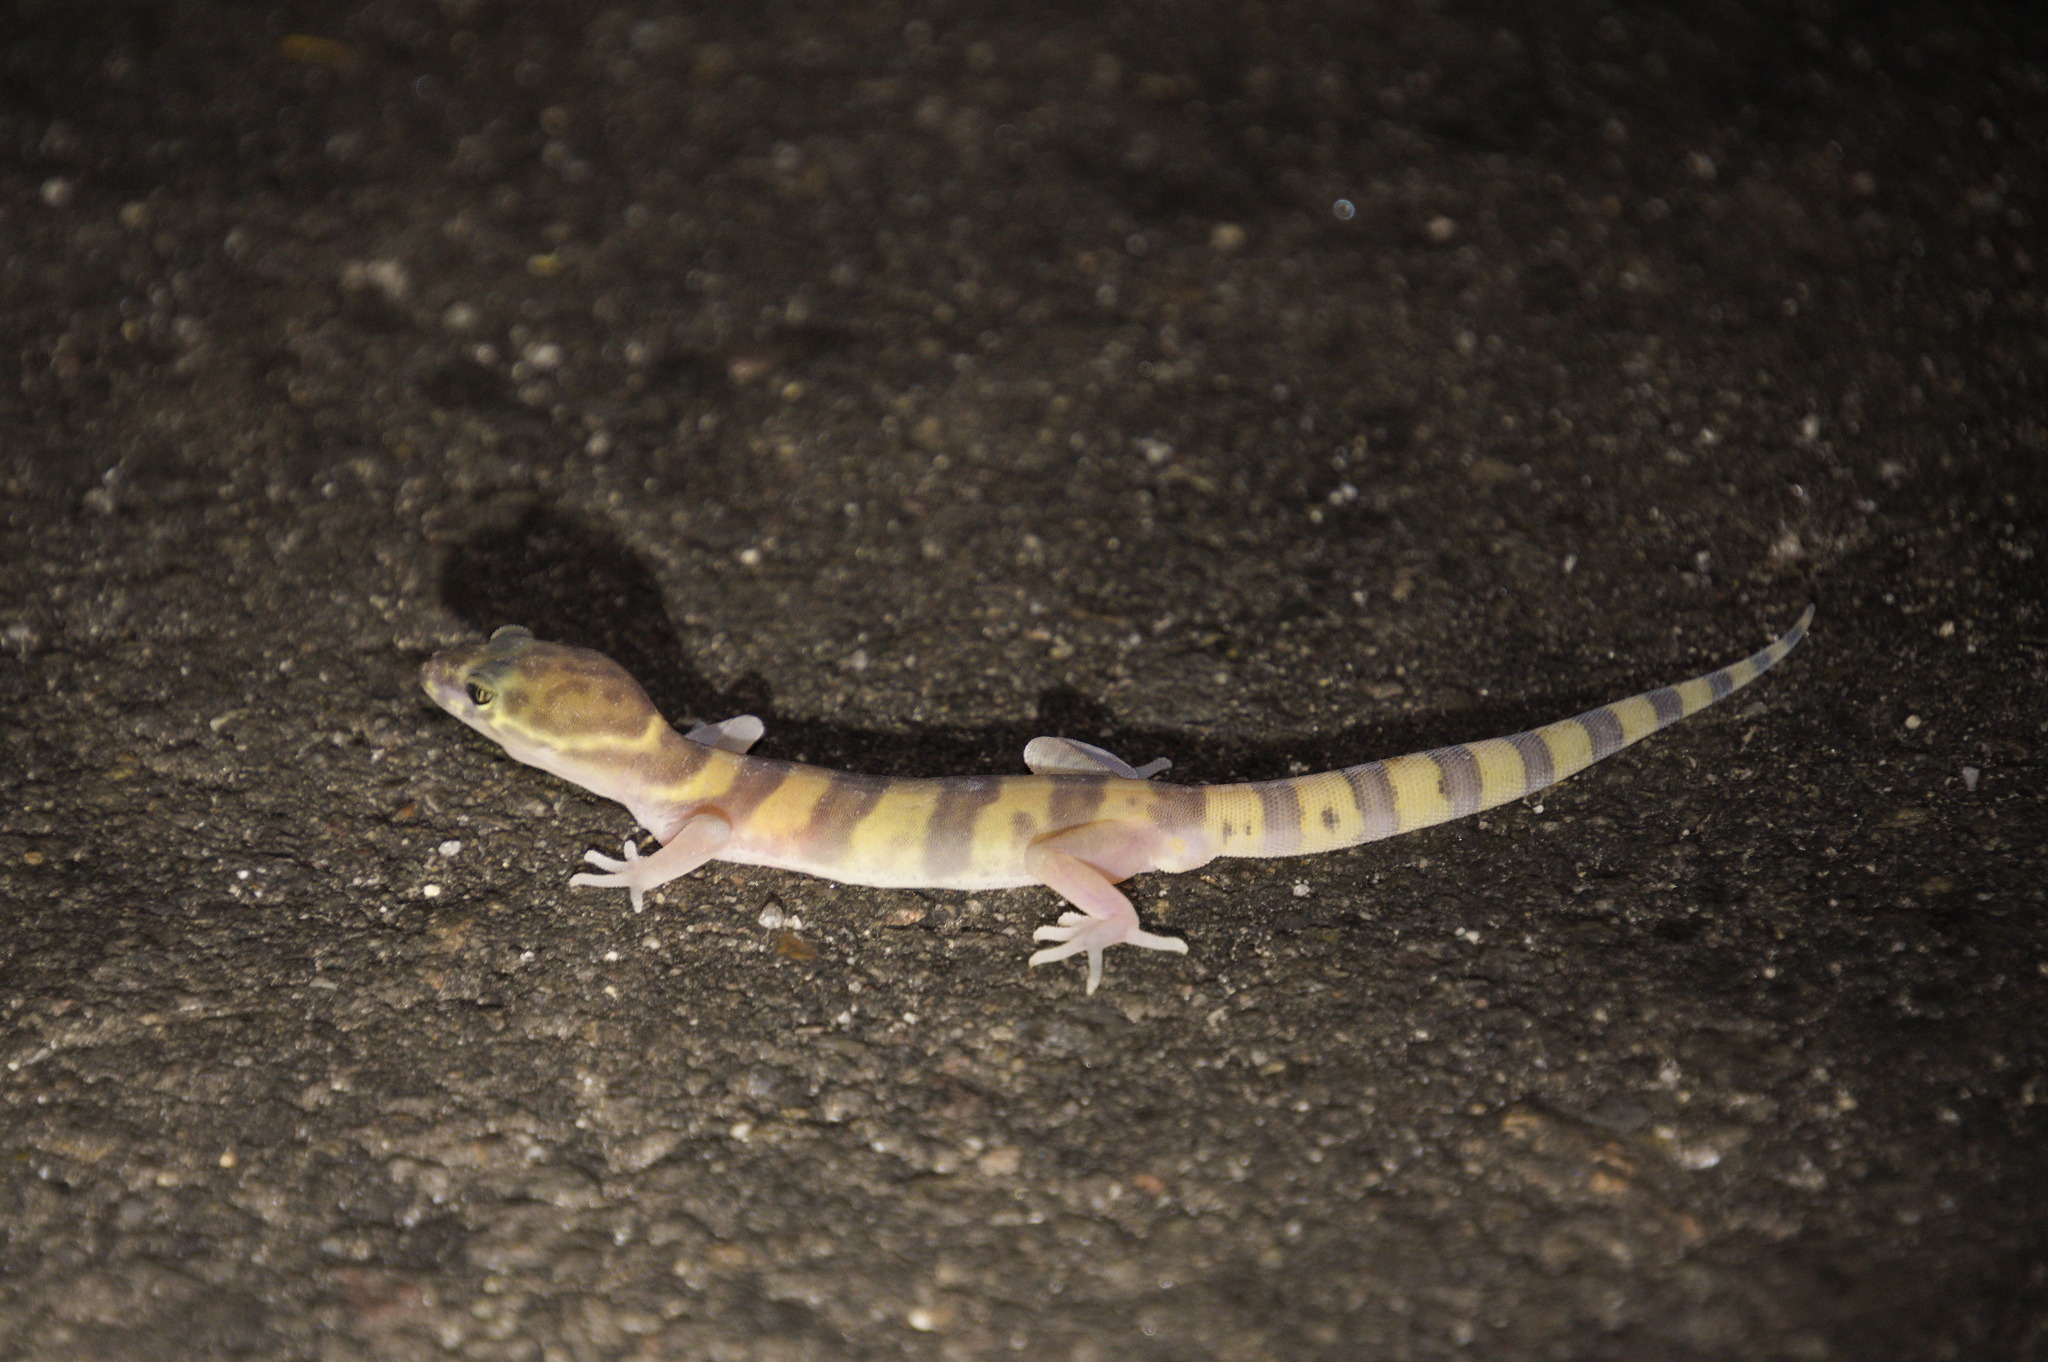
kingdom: Animalia
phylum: Chordata
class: Squamata
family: Eublepharidae
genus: Coleonyx
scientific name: Coleonyx variegatus
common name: Western banded gecko
